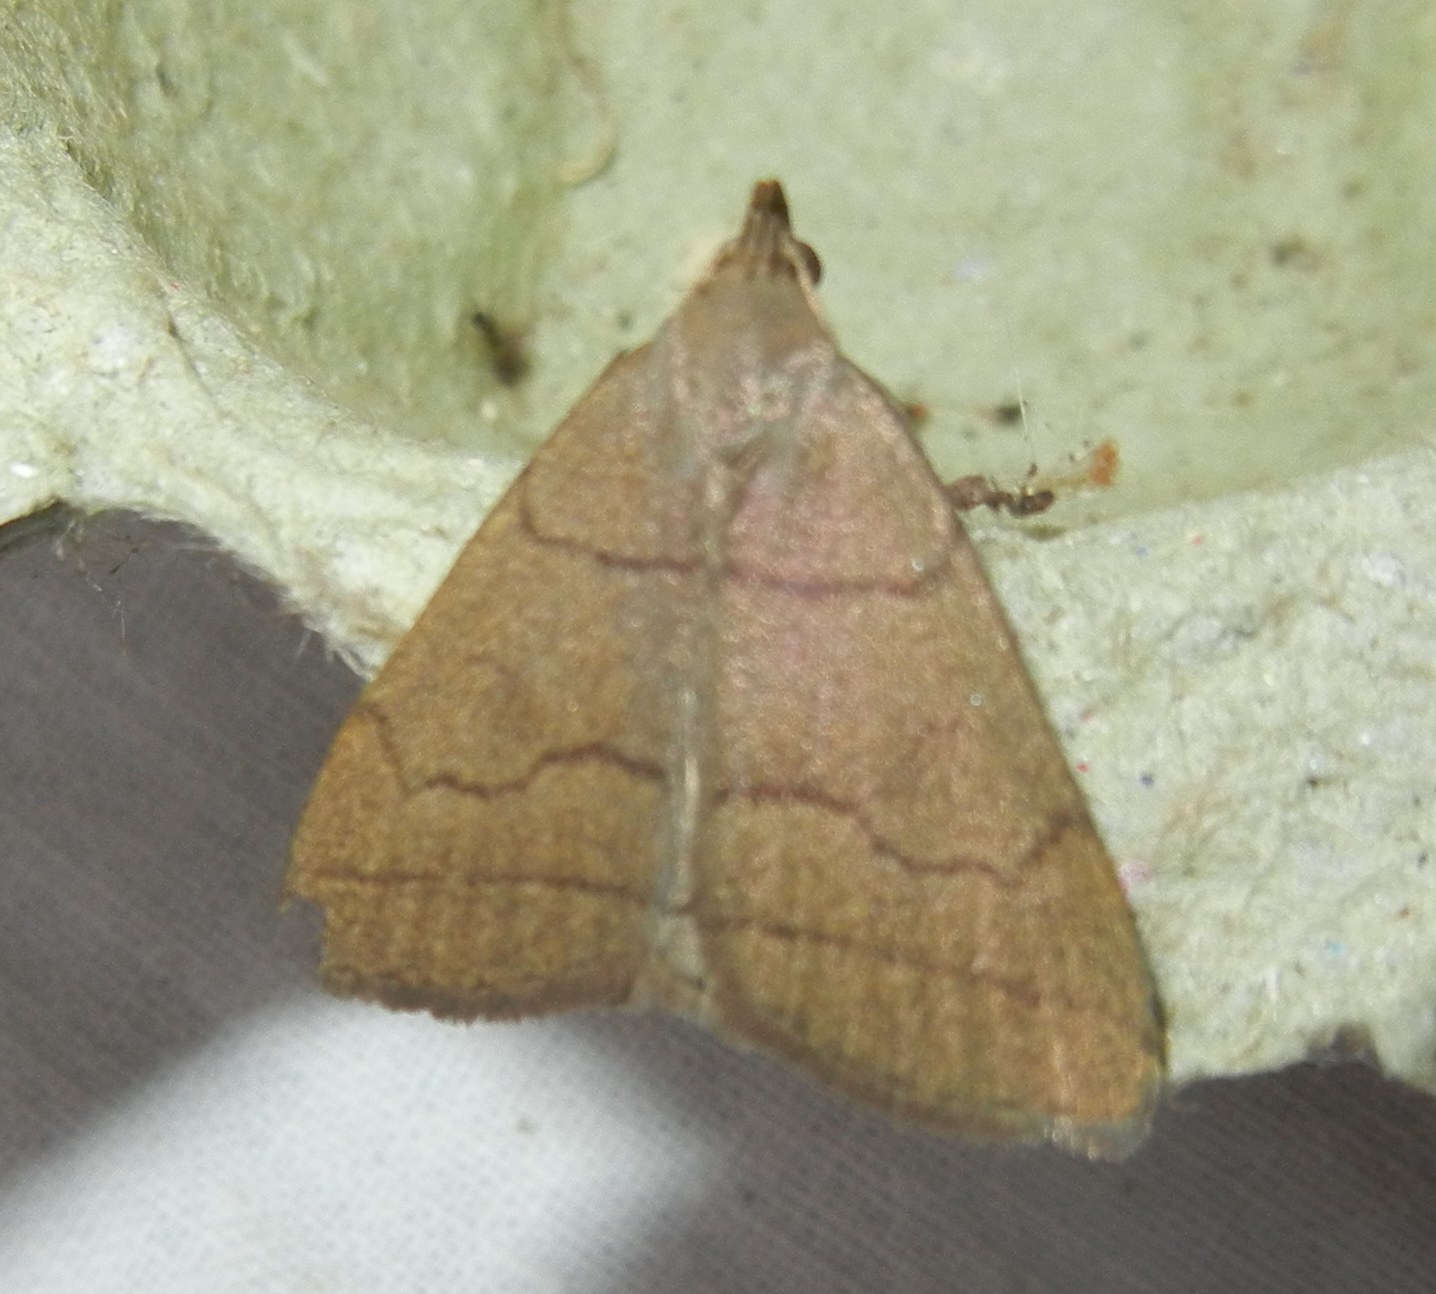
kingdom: Animalia
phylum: Arthropoda
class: Insecta
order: Lepidoptera
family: Erebidae
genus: Herminia
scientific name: Herminia tarsipennalis
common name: Fan-foot
